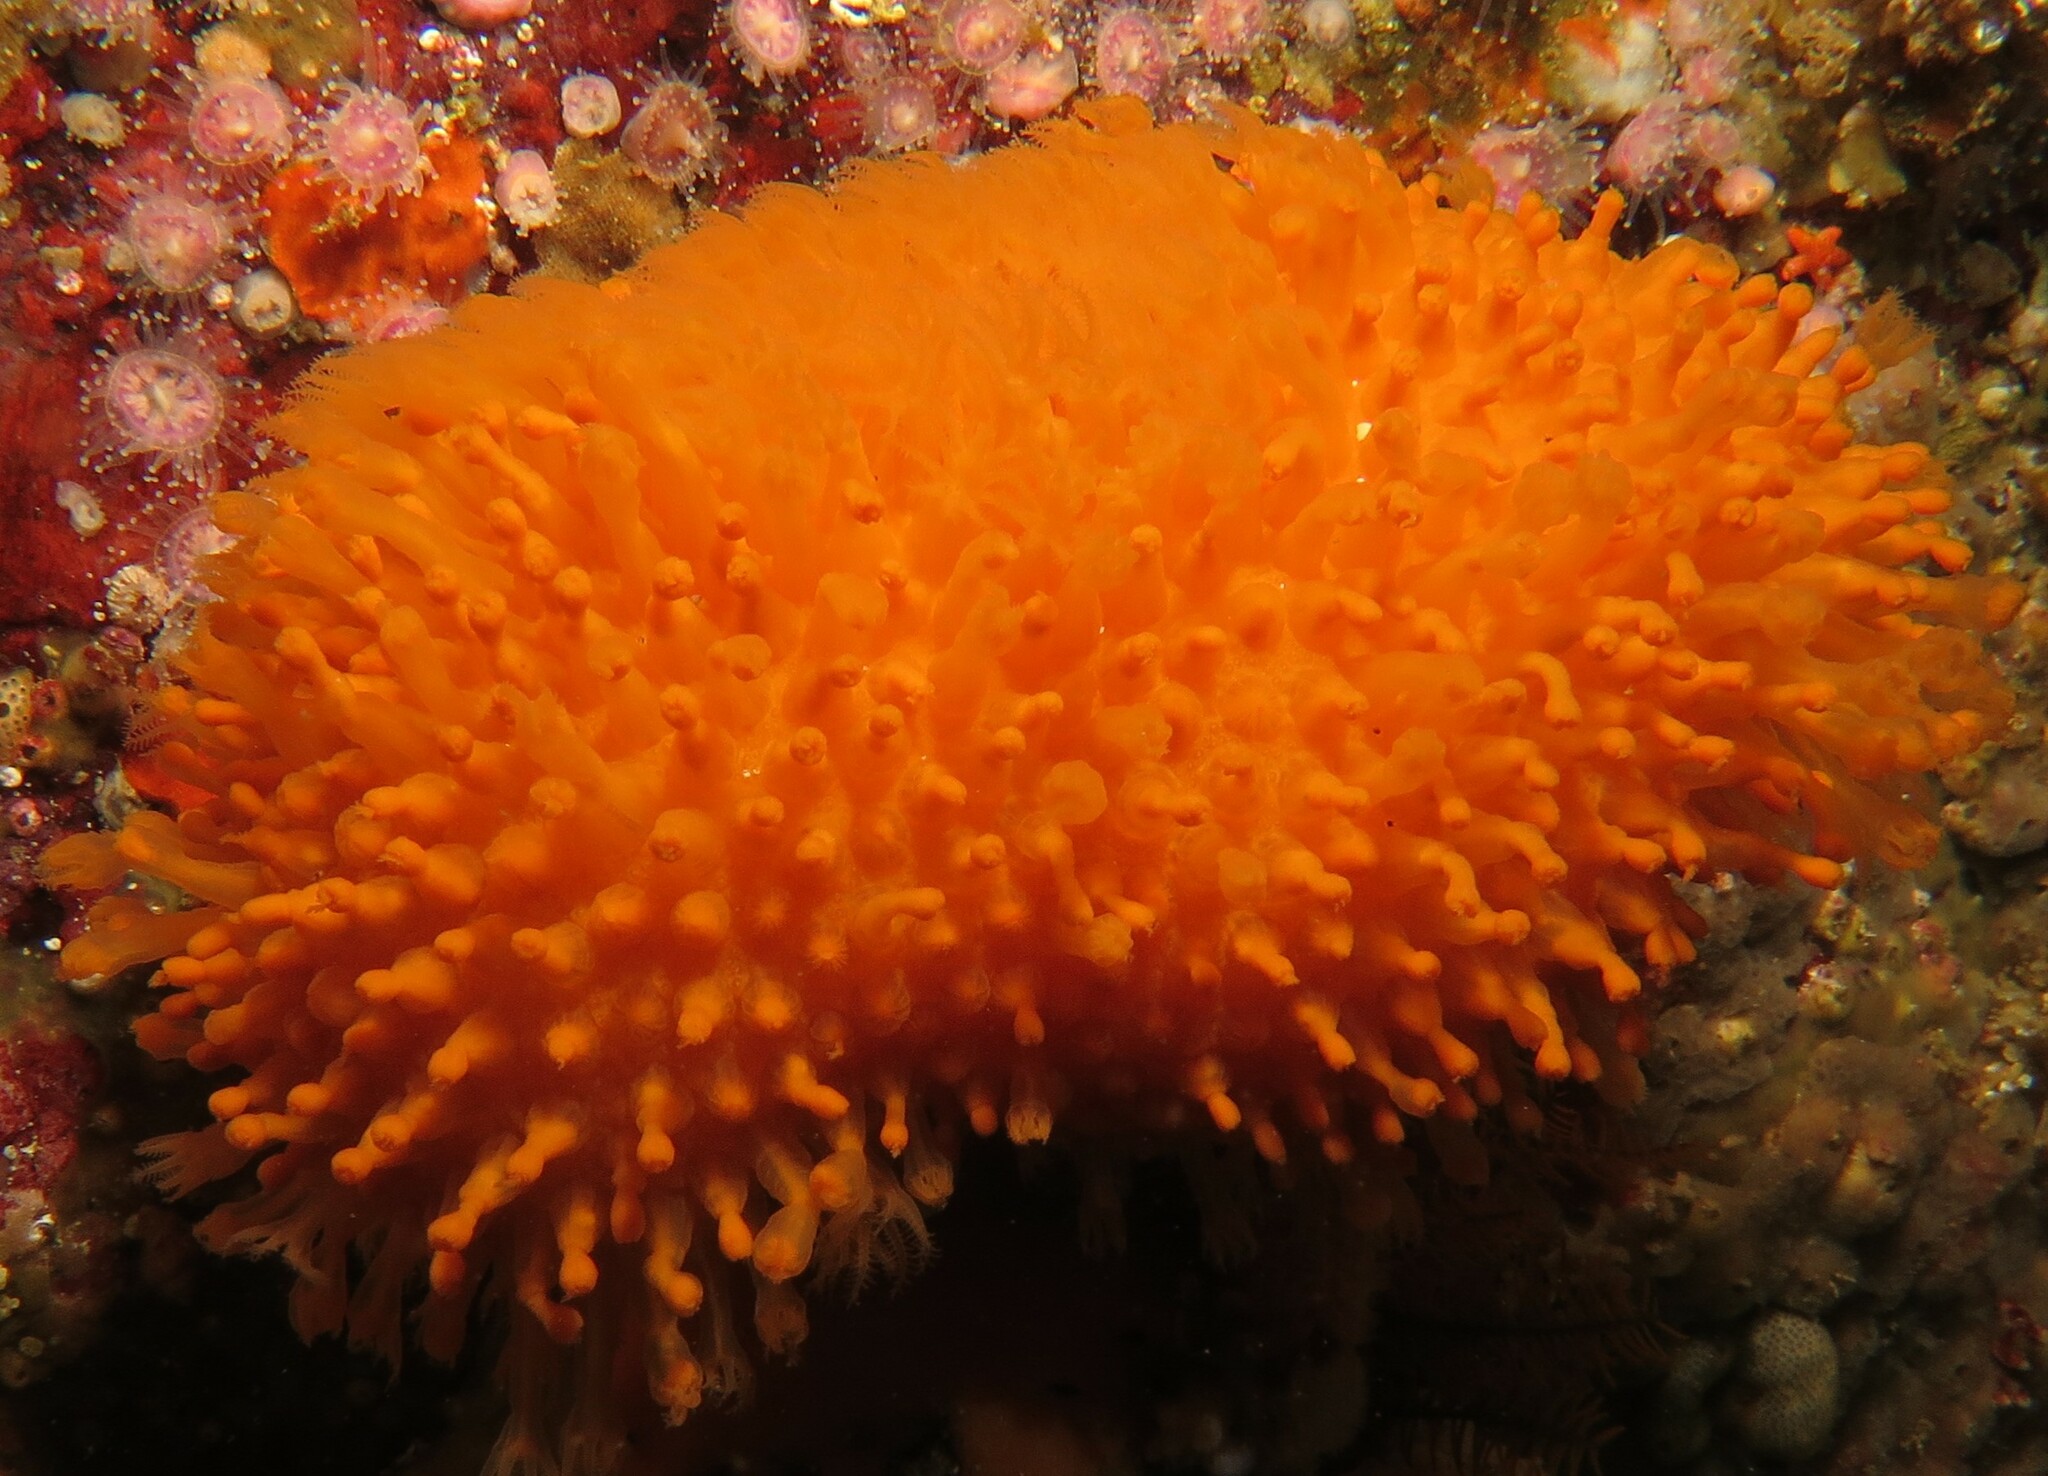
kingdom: Animalia
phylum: Cnidaria
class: Anthozoa
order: Malacalcyonacea
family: Malacacanthidae
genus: Malacacanthus
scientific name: Malacacanthus capensis
